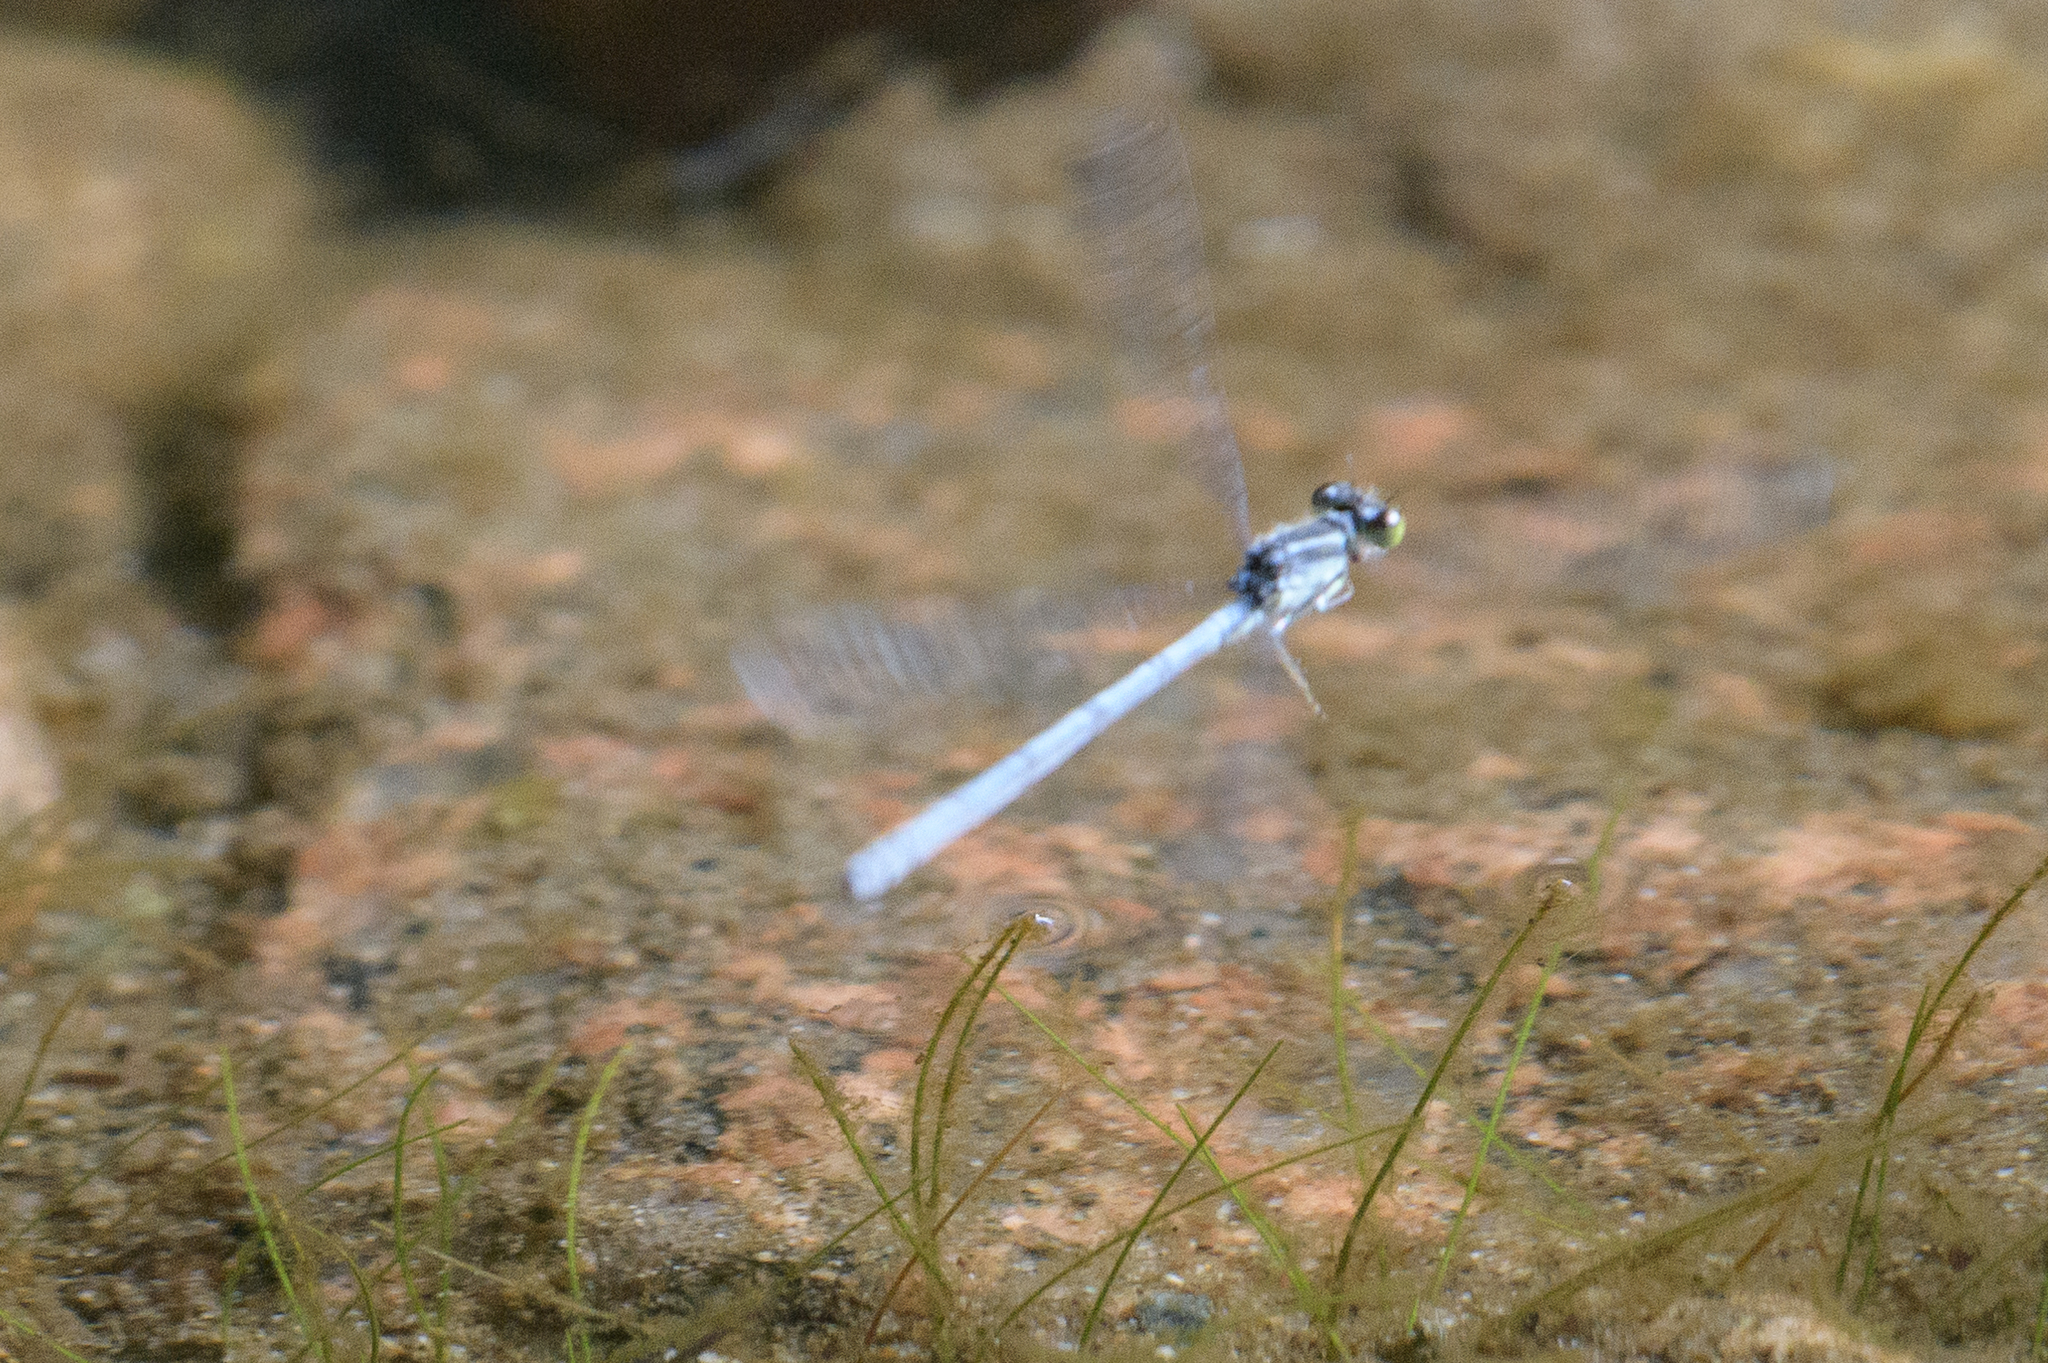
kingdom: Animalia
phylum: Arthropoda
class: Insecta
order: Odonata
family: Coenagrionidae
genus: Ischnura
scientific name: Ischnura verticalis
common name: Eastern forktail
